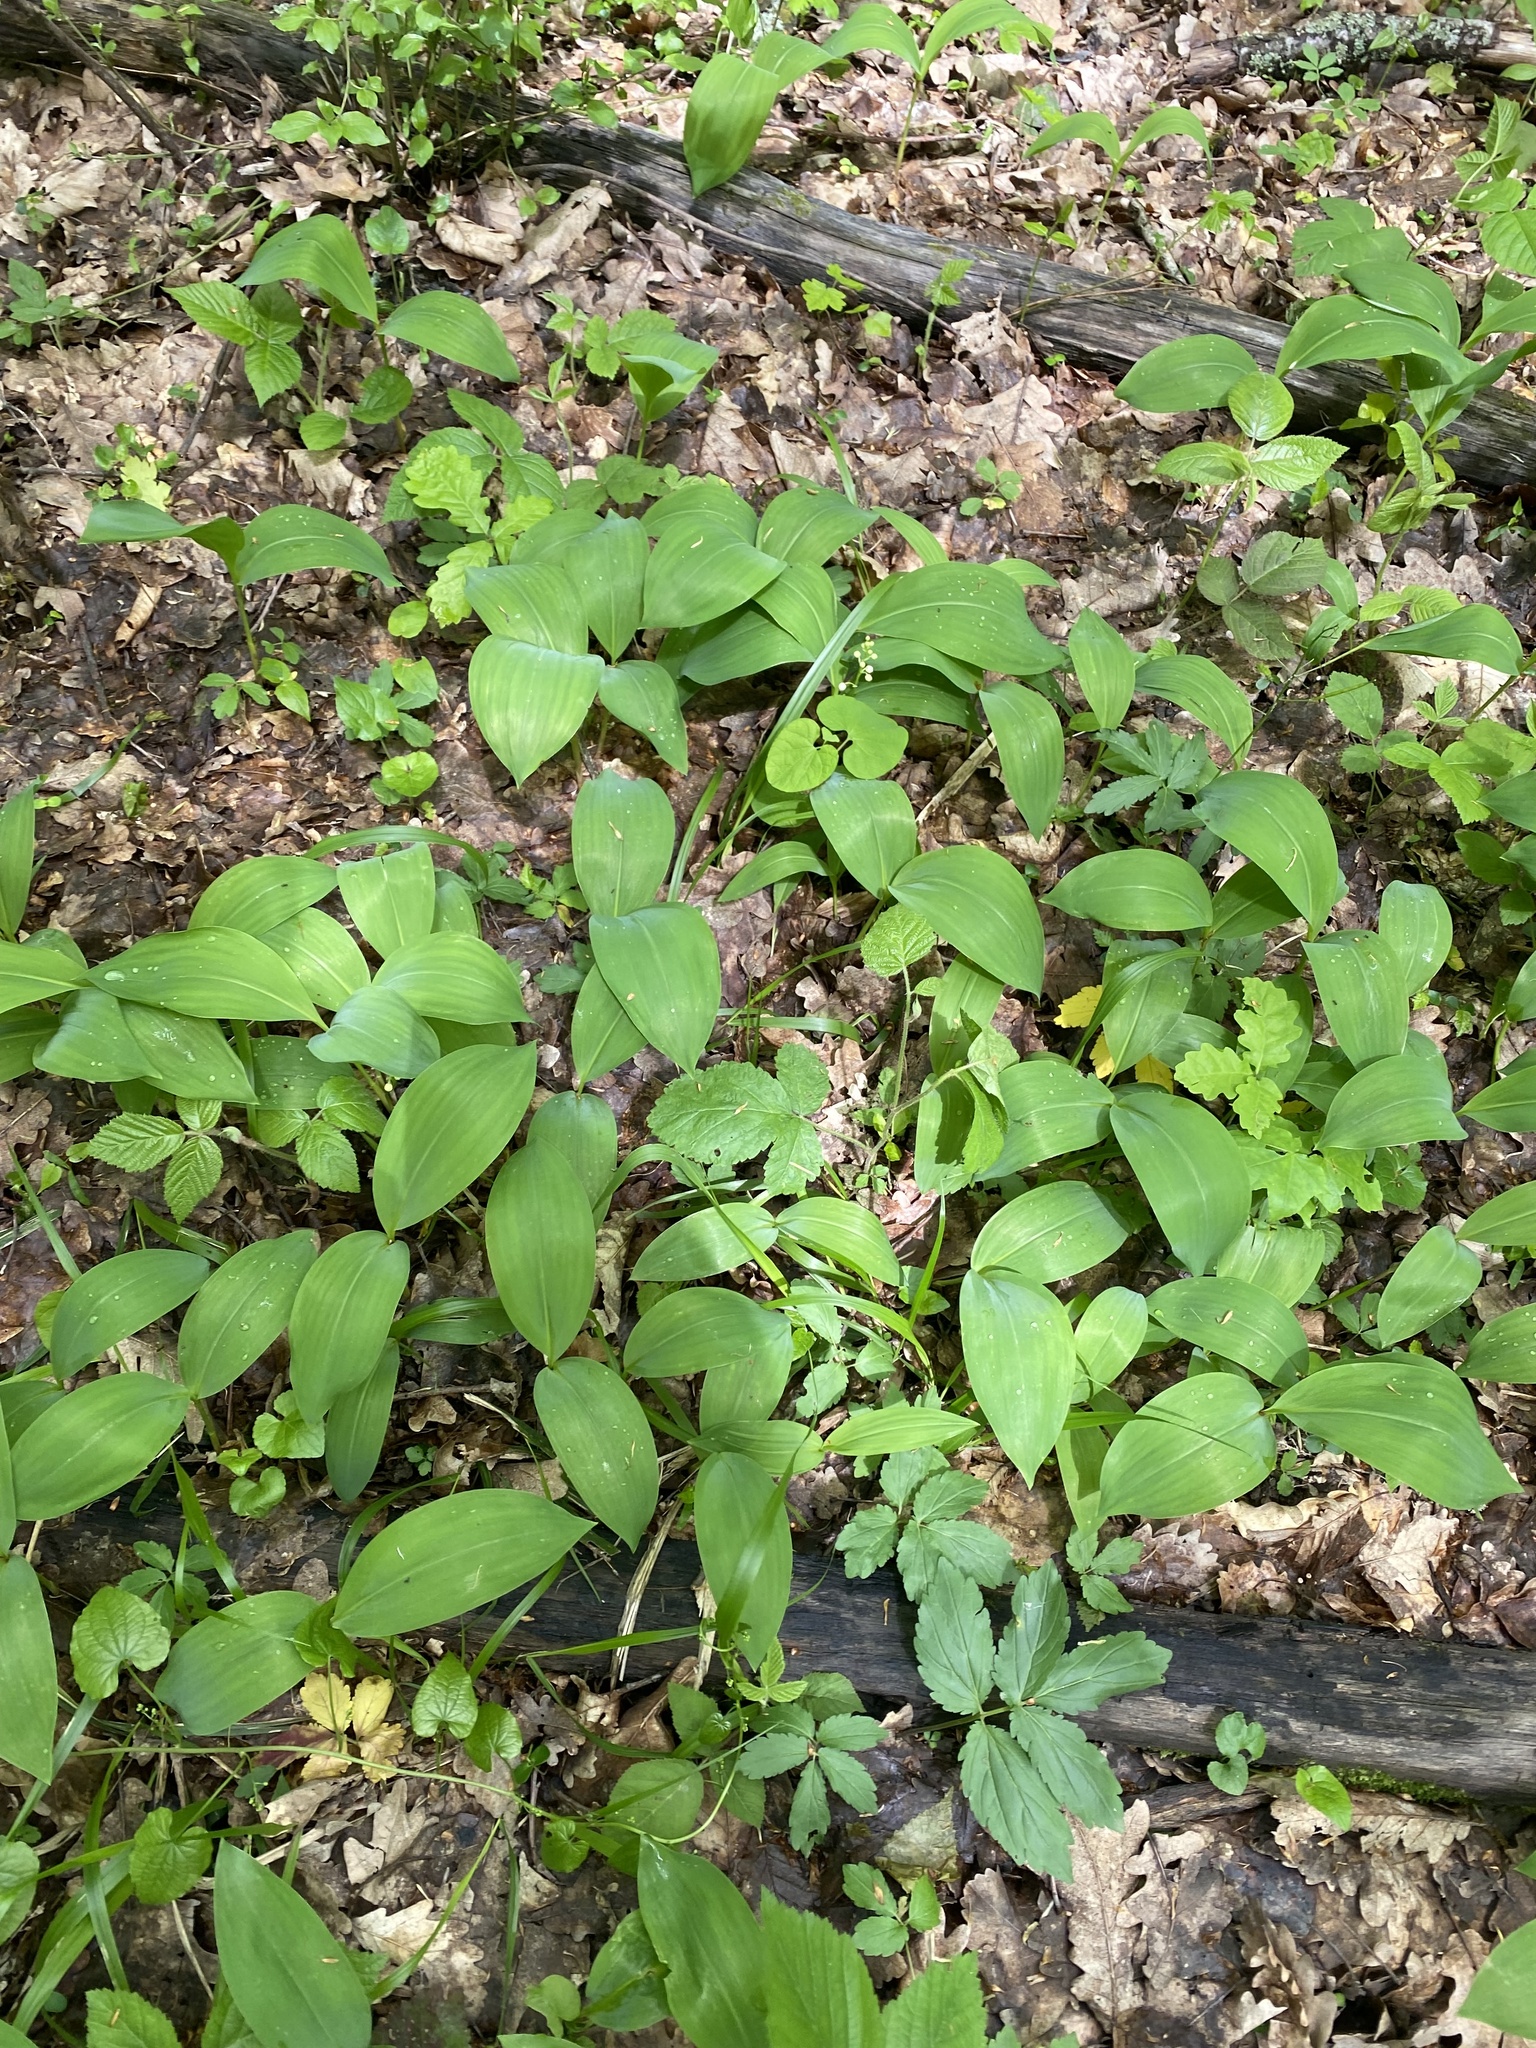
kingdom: Plantae
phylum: Tracheophyta
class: Liliopsida
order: Asparagales
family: Asparagaceae
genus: Convallaria
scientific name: Convallaria majalis
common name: Lily-of-the-valley
